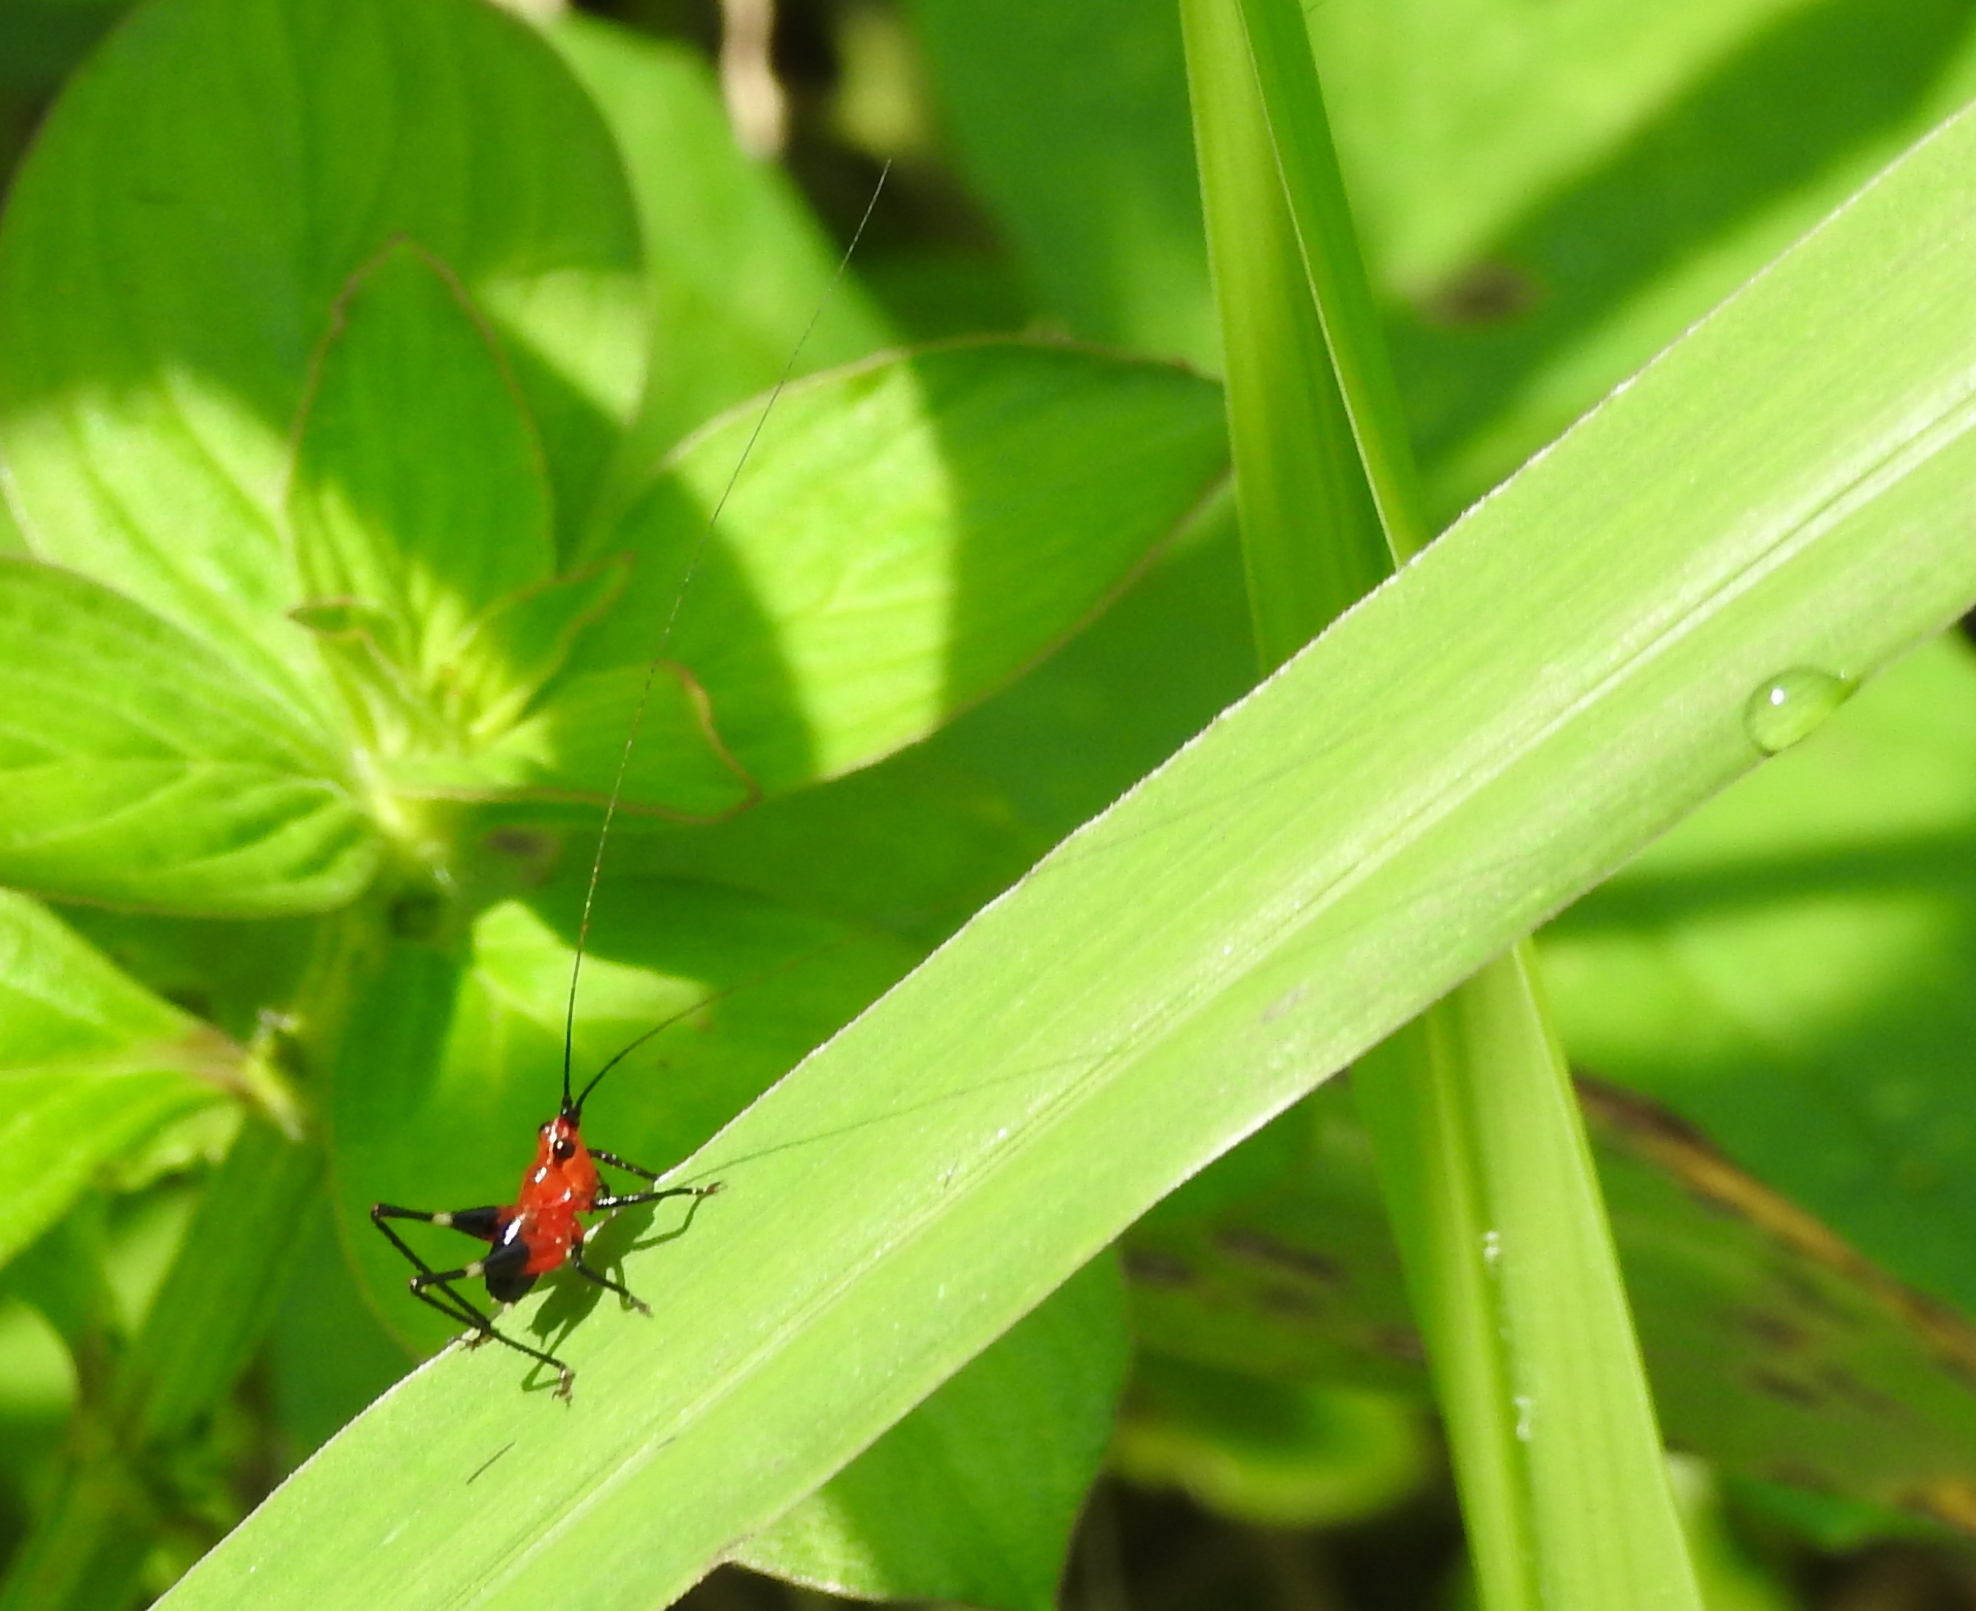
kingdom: Animalia
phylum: Arthropoda
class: Insecta
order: Orthoptera
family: Tettigoniidae
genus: Conocephalus
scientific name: Conocephalus melaenus
